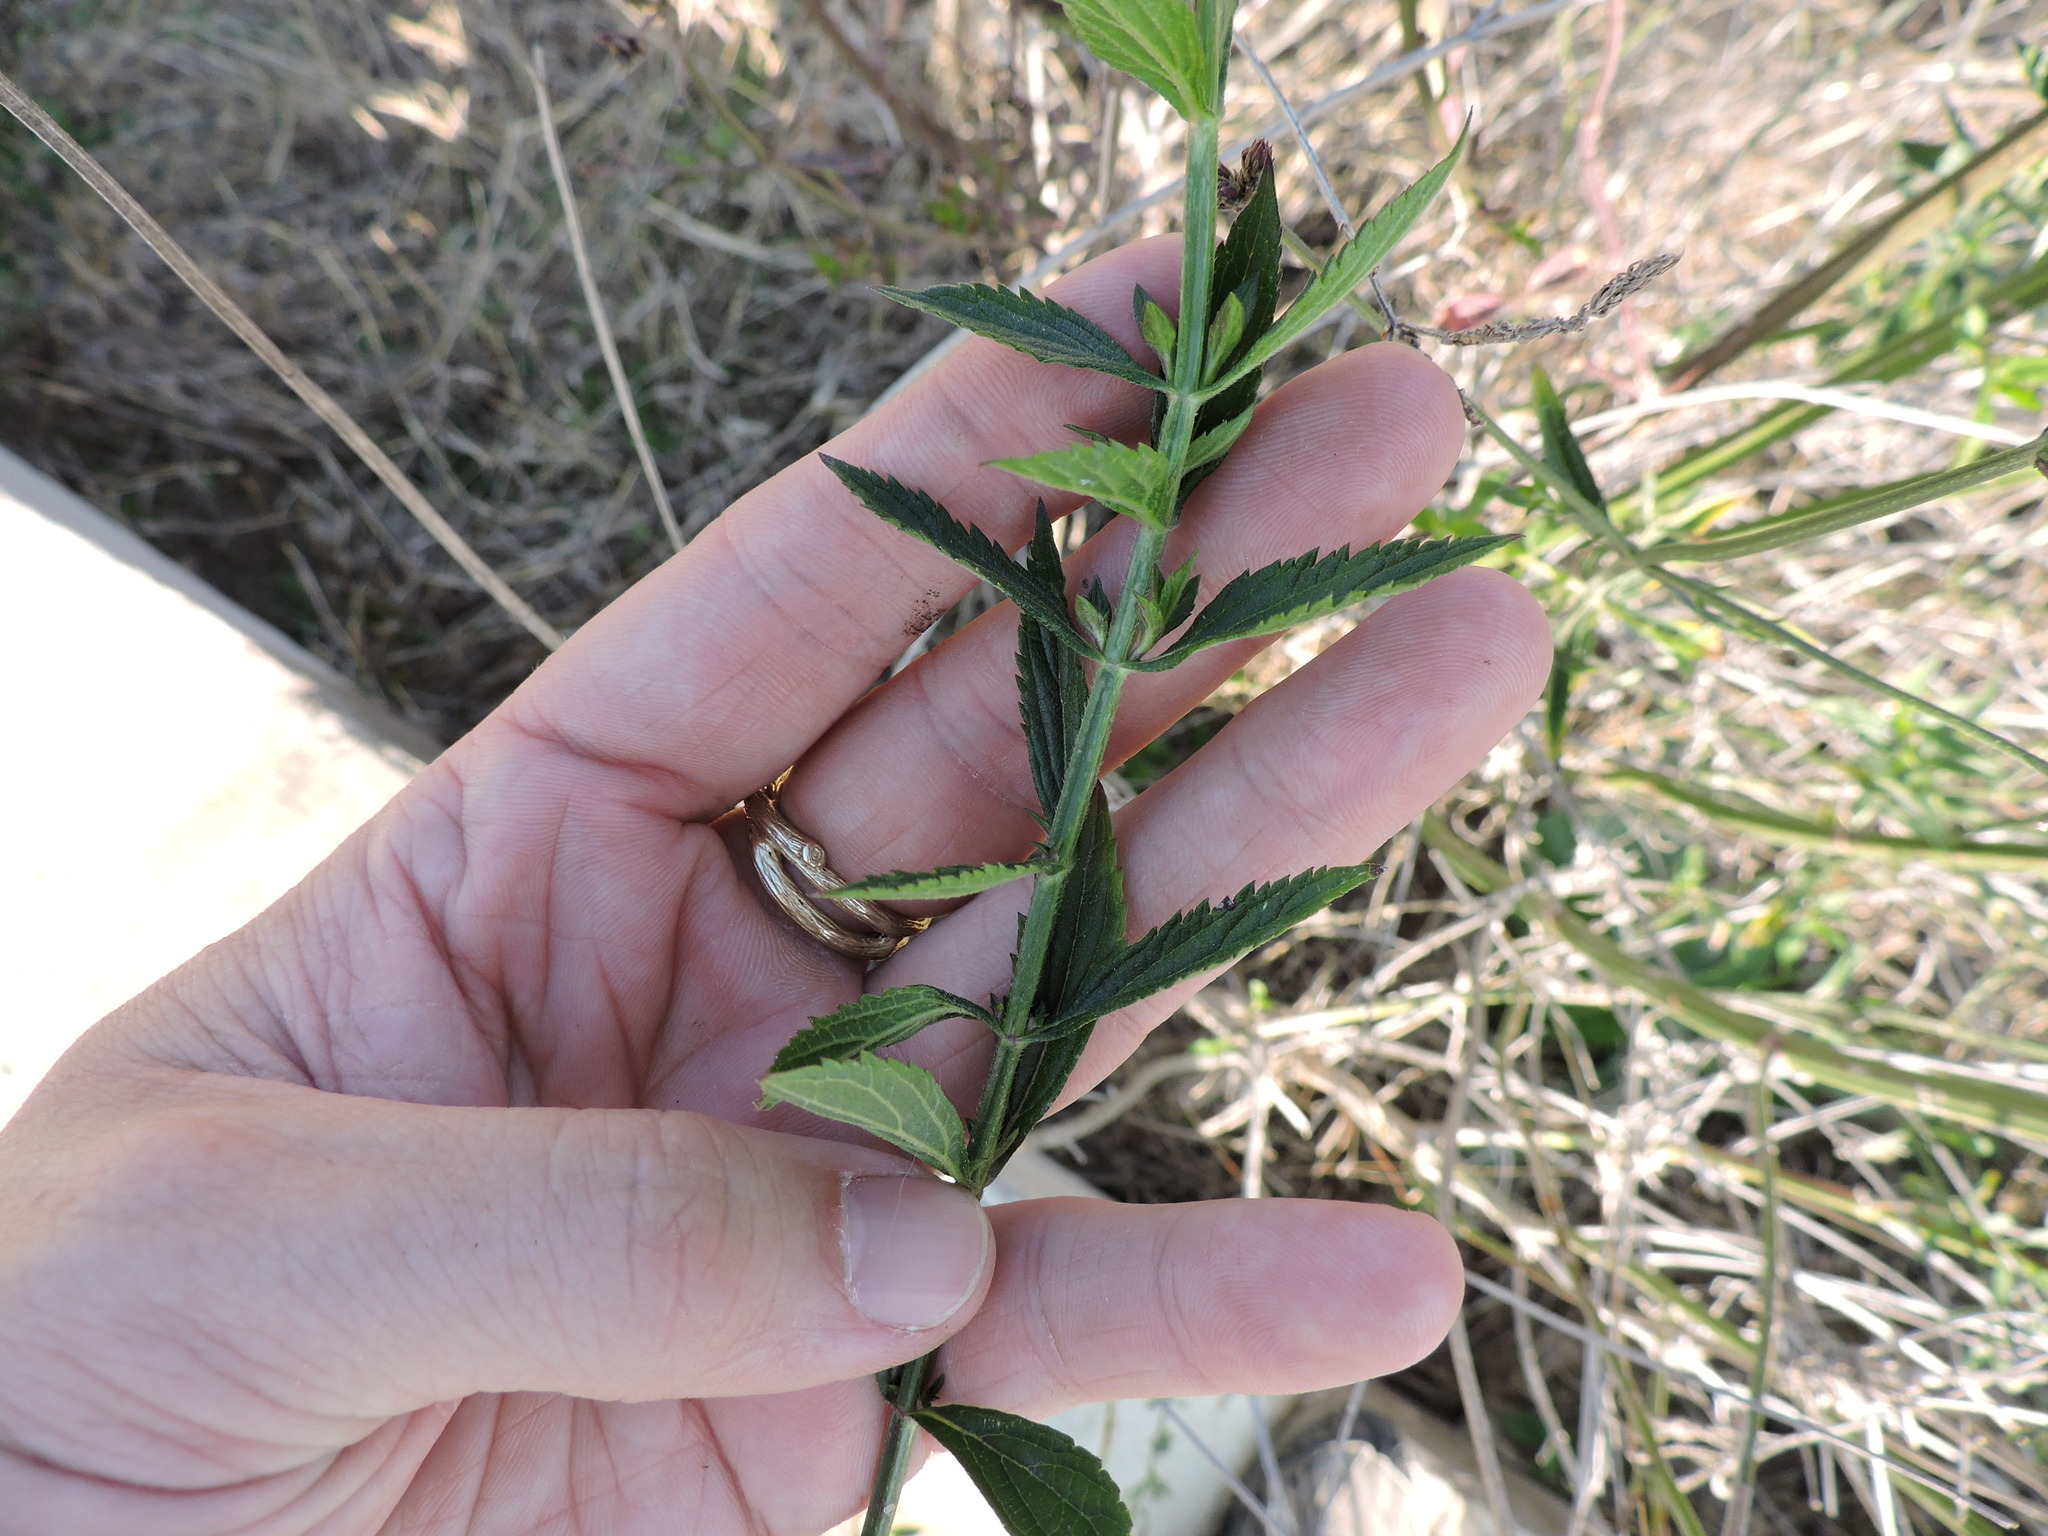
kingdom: Plantae
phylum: Tracheophyta
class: Magnoliopsida
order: Lamiales
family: Verbenaceae
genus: Verbena
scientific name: Verbena brasiliensis
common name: Brazilian vervain
